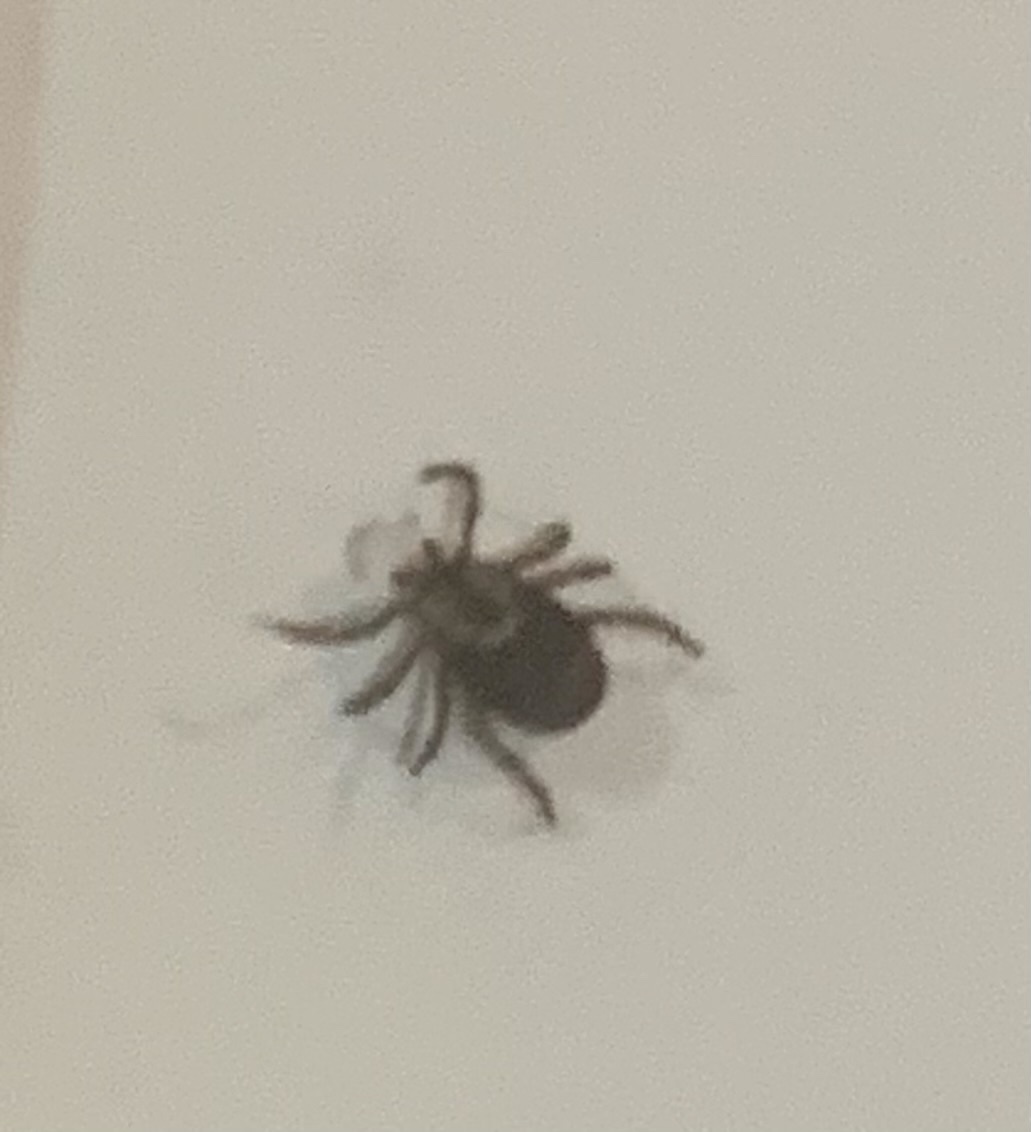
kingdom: Animalia
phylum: Arthropoda
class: Arachnida
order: Ixodida
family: Ixodidae
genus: Dermacentor
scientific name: Dermacentor variabilis
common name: American dog tick
